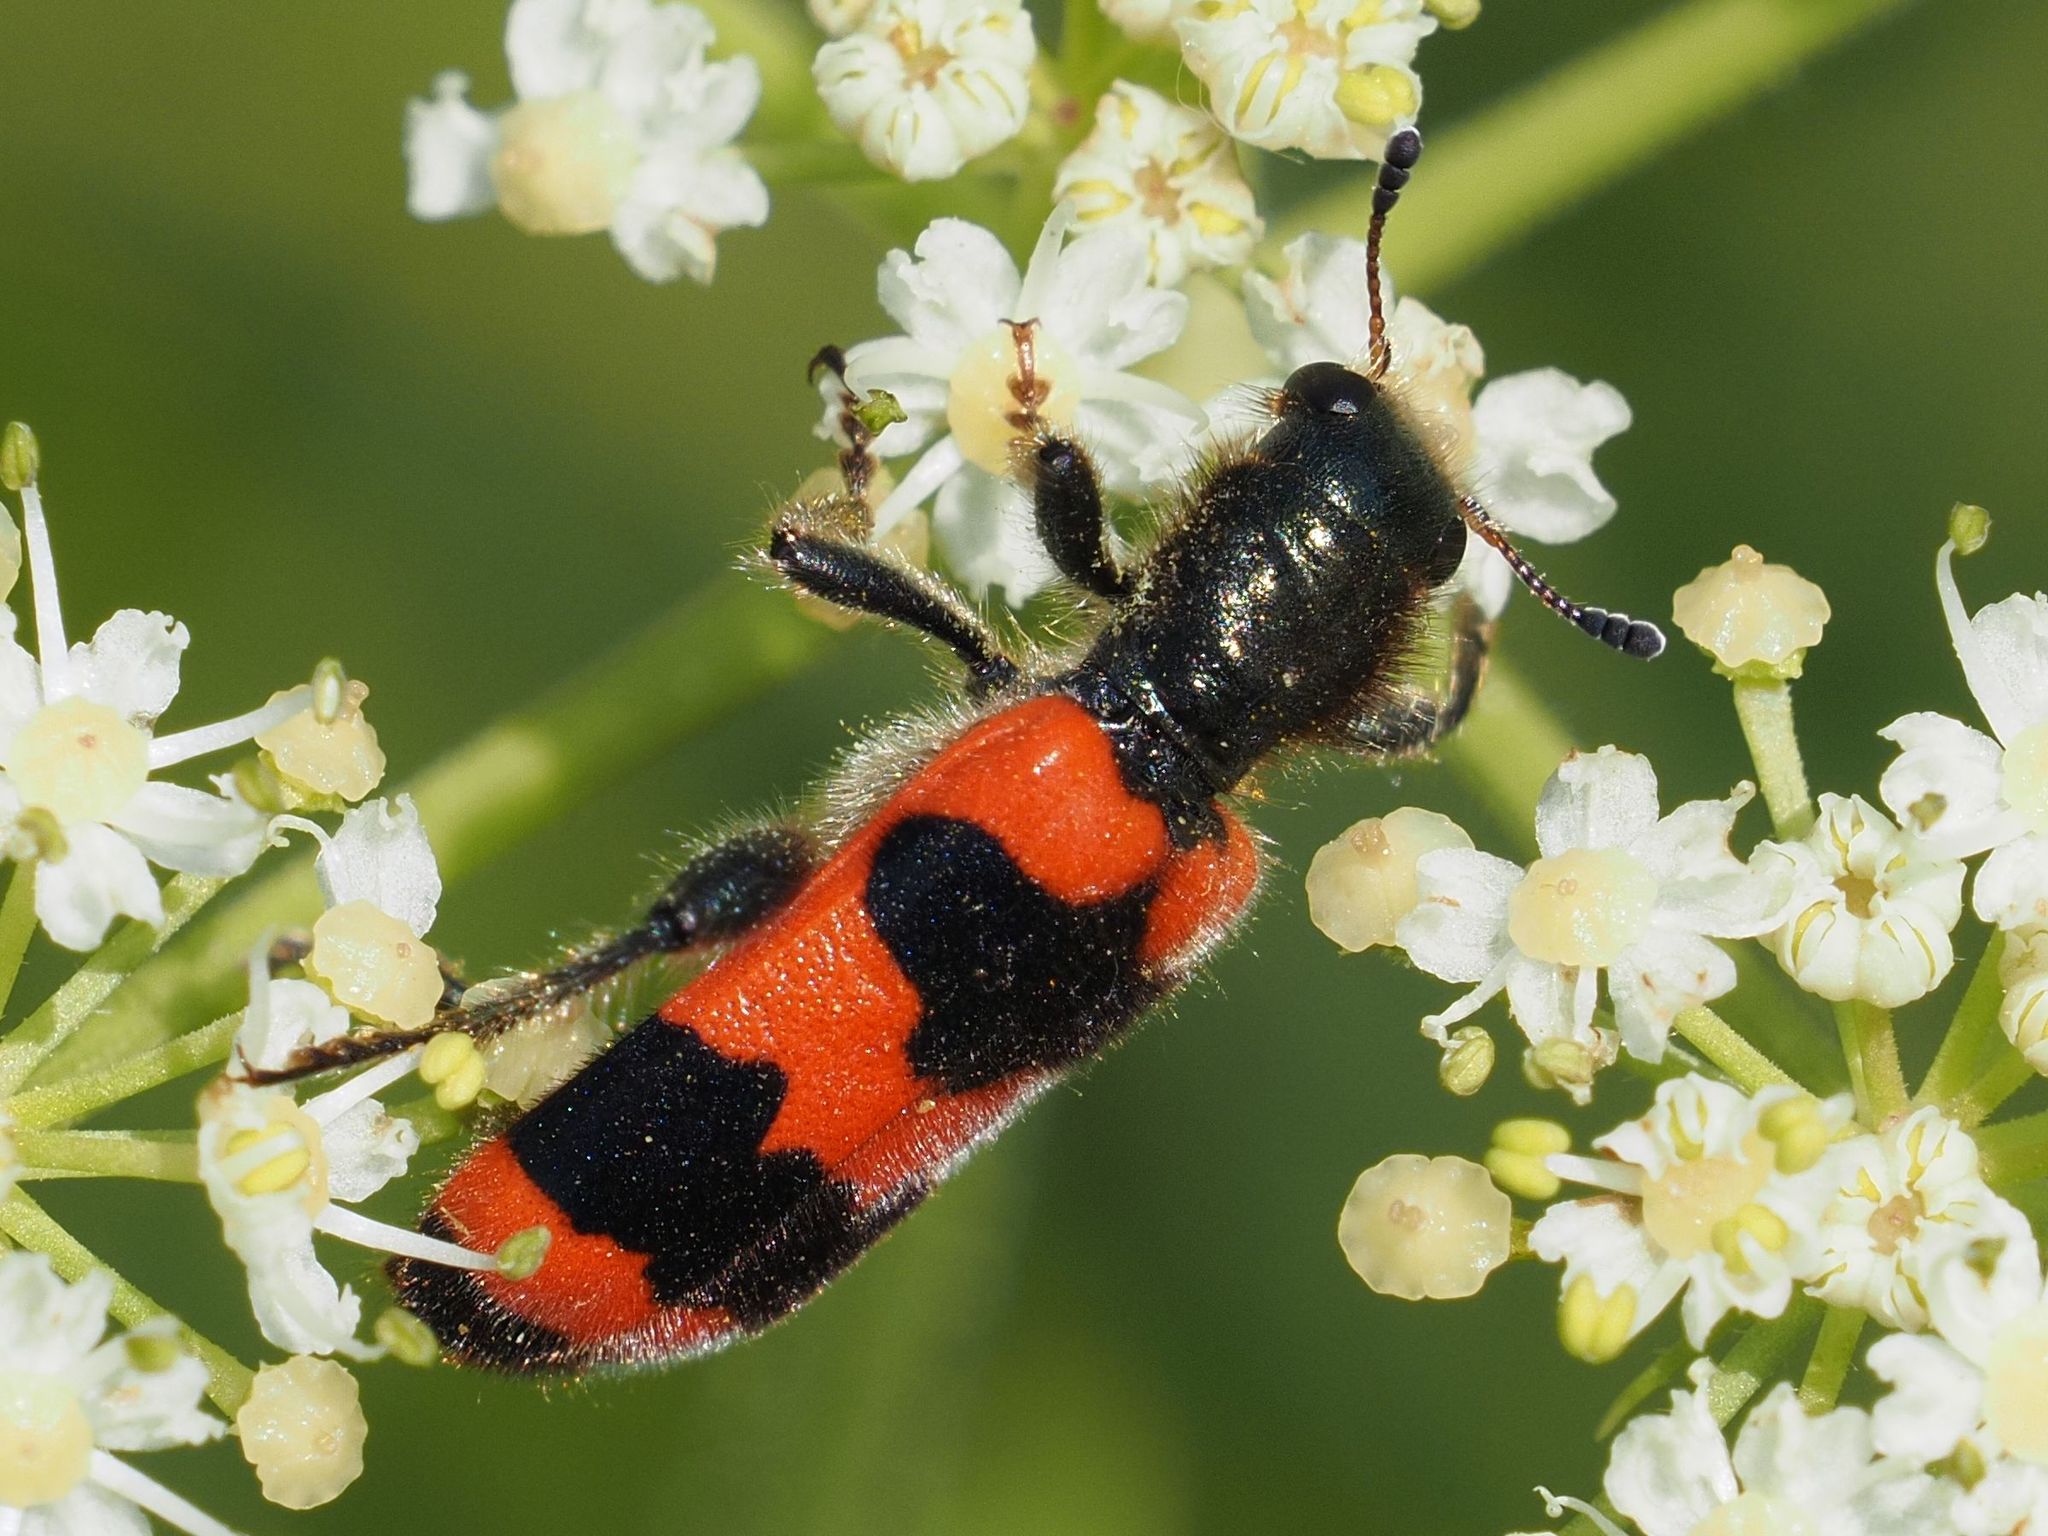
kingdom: Animalia
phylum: Arthropoda
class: Insecta
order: Coleoptera
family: Cleridae
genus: Trichodes
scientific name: Trichodes apiarius
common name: Bee-eating beetle
